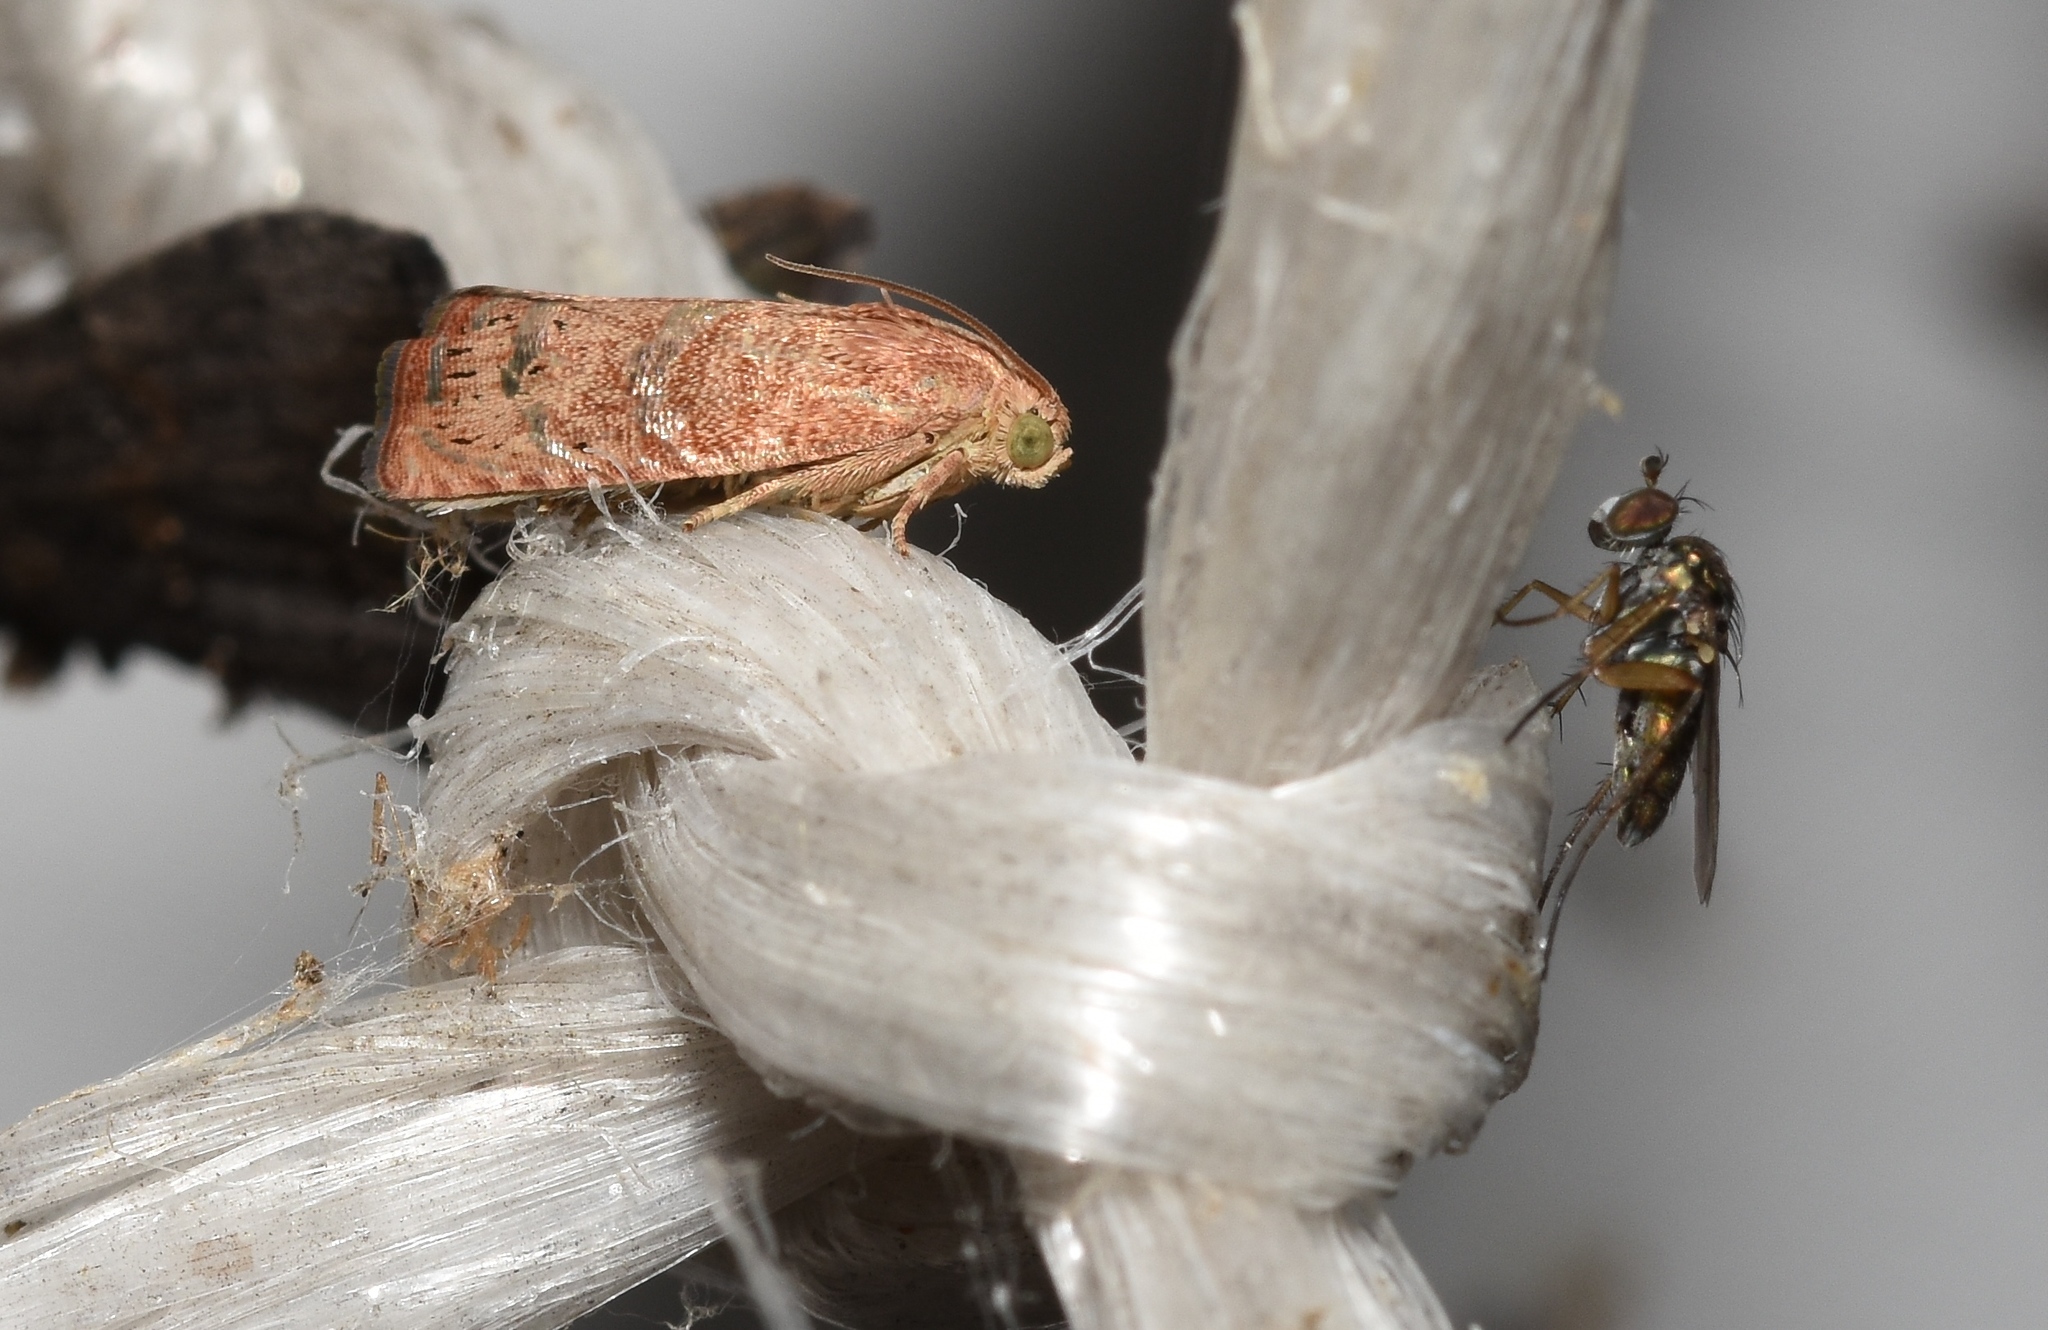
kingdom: Animalia
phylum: Arthropoda
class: Insecta
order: Lepidoptera
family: Tortricidae
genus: Cydia
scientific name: Cydia latiferreana
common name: Filbertworm moth
